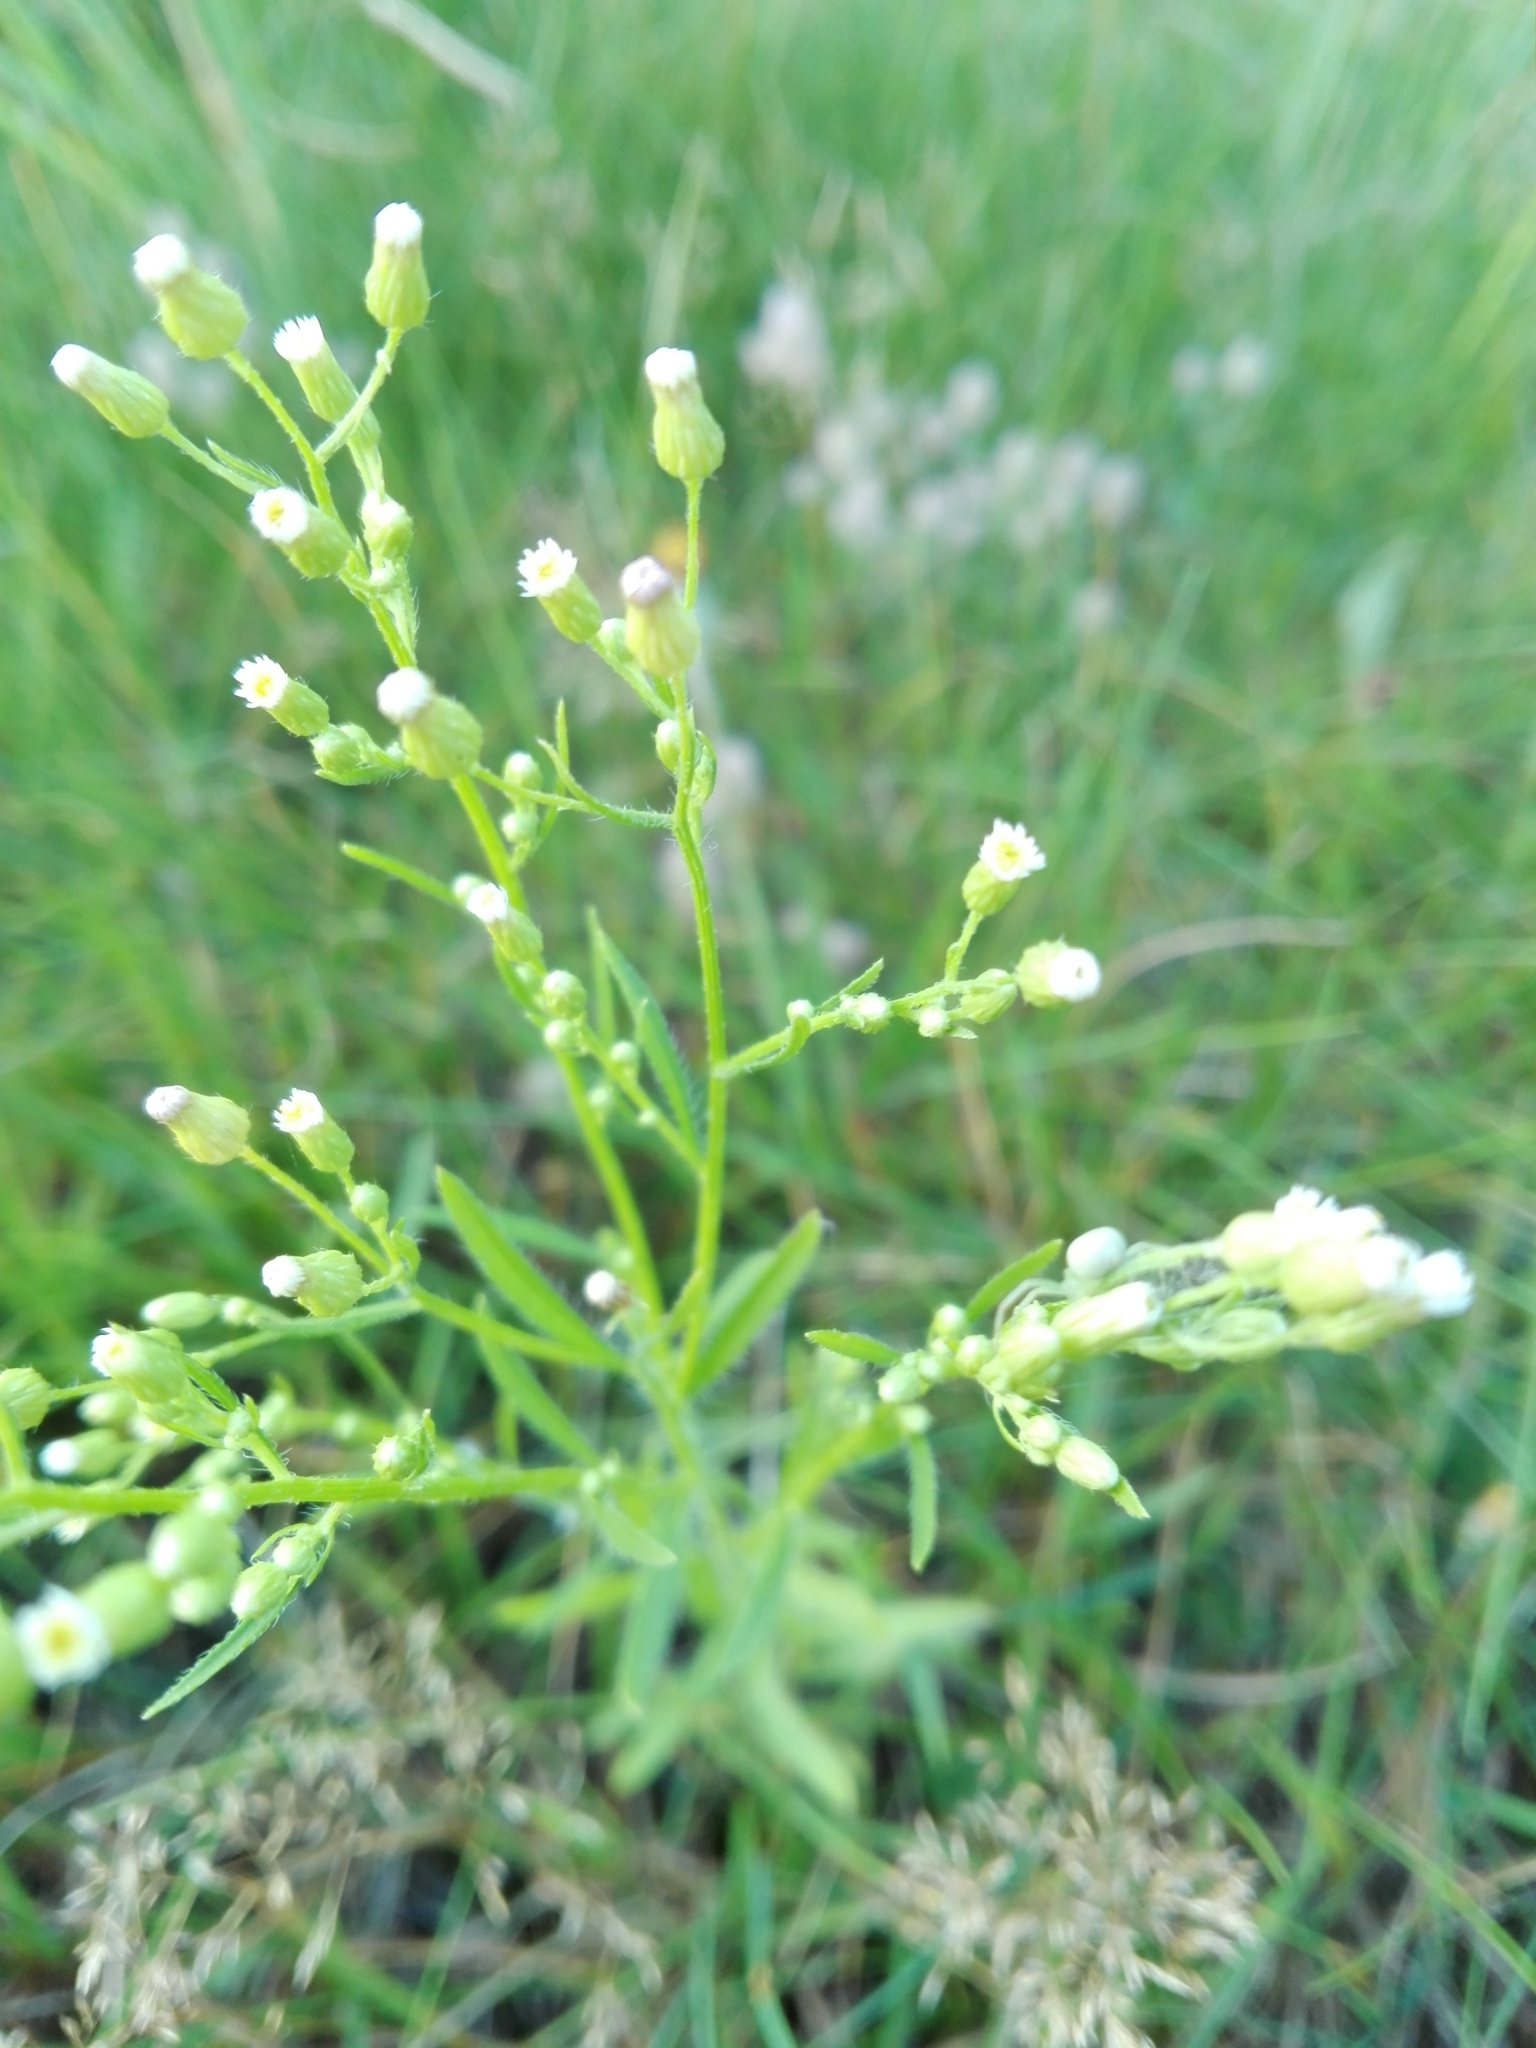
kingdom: Plantae
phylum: Tracheophyta
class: Magnoliopsida
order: Asterales
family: Asteraceae
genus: Erigeron
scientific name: Erigeron canadensis
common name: Canadian fleabane
